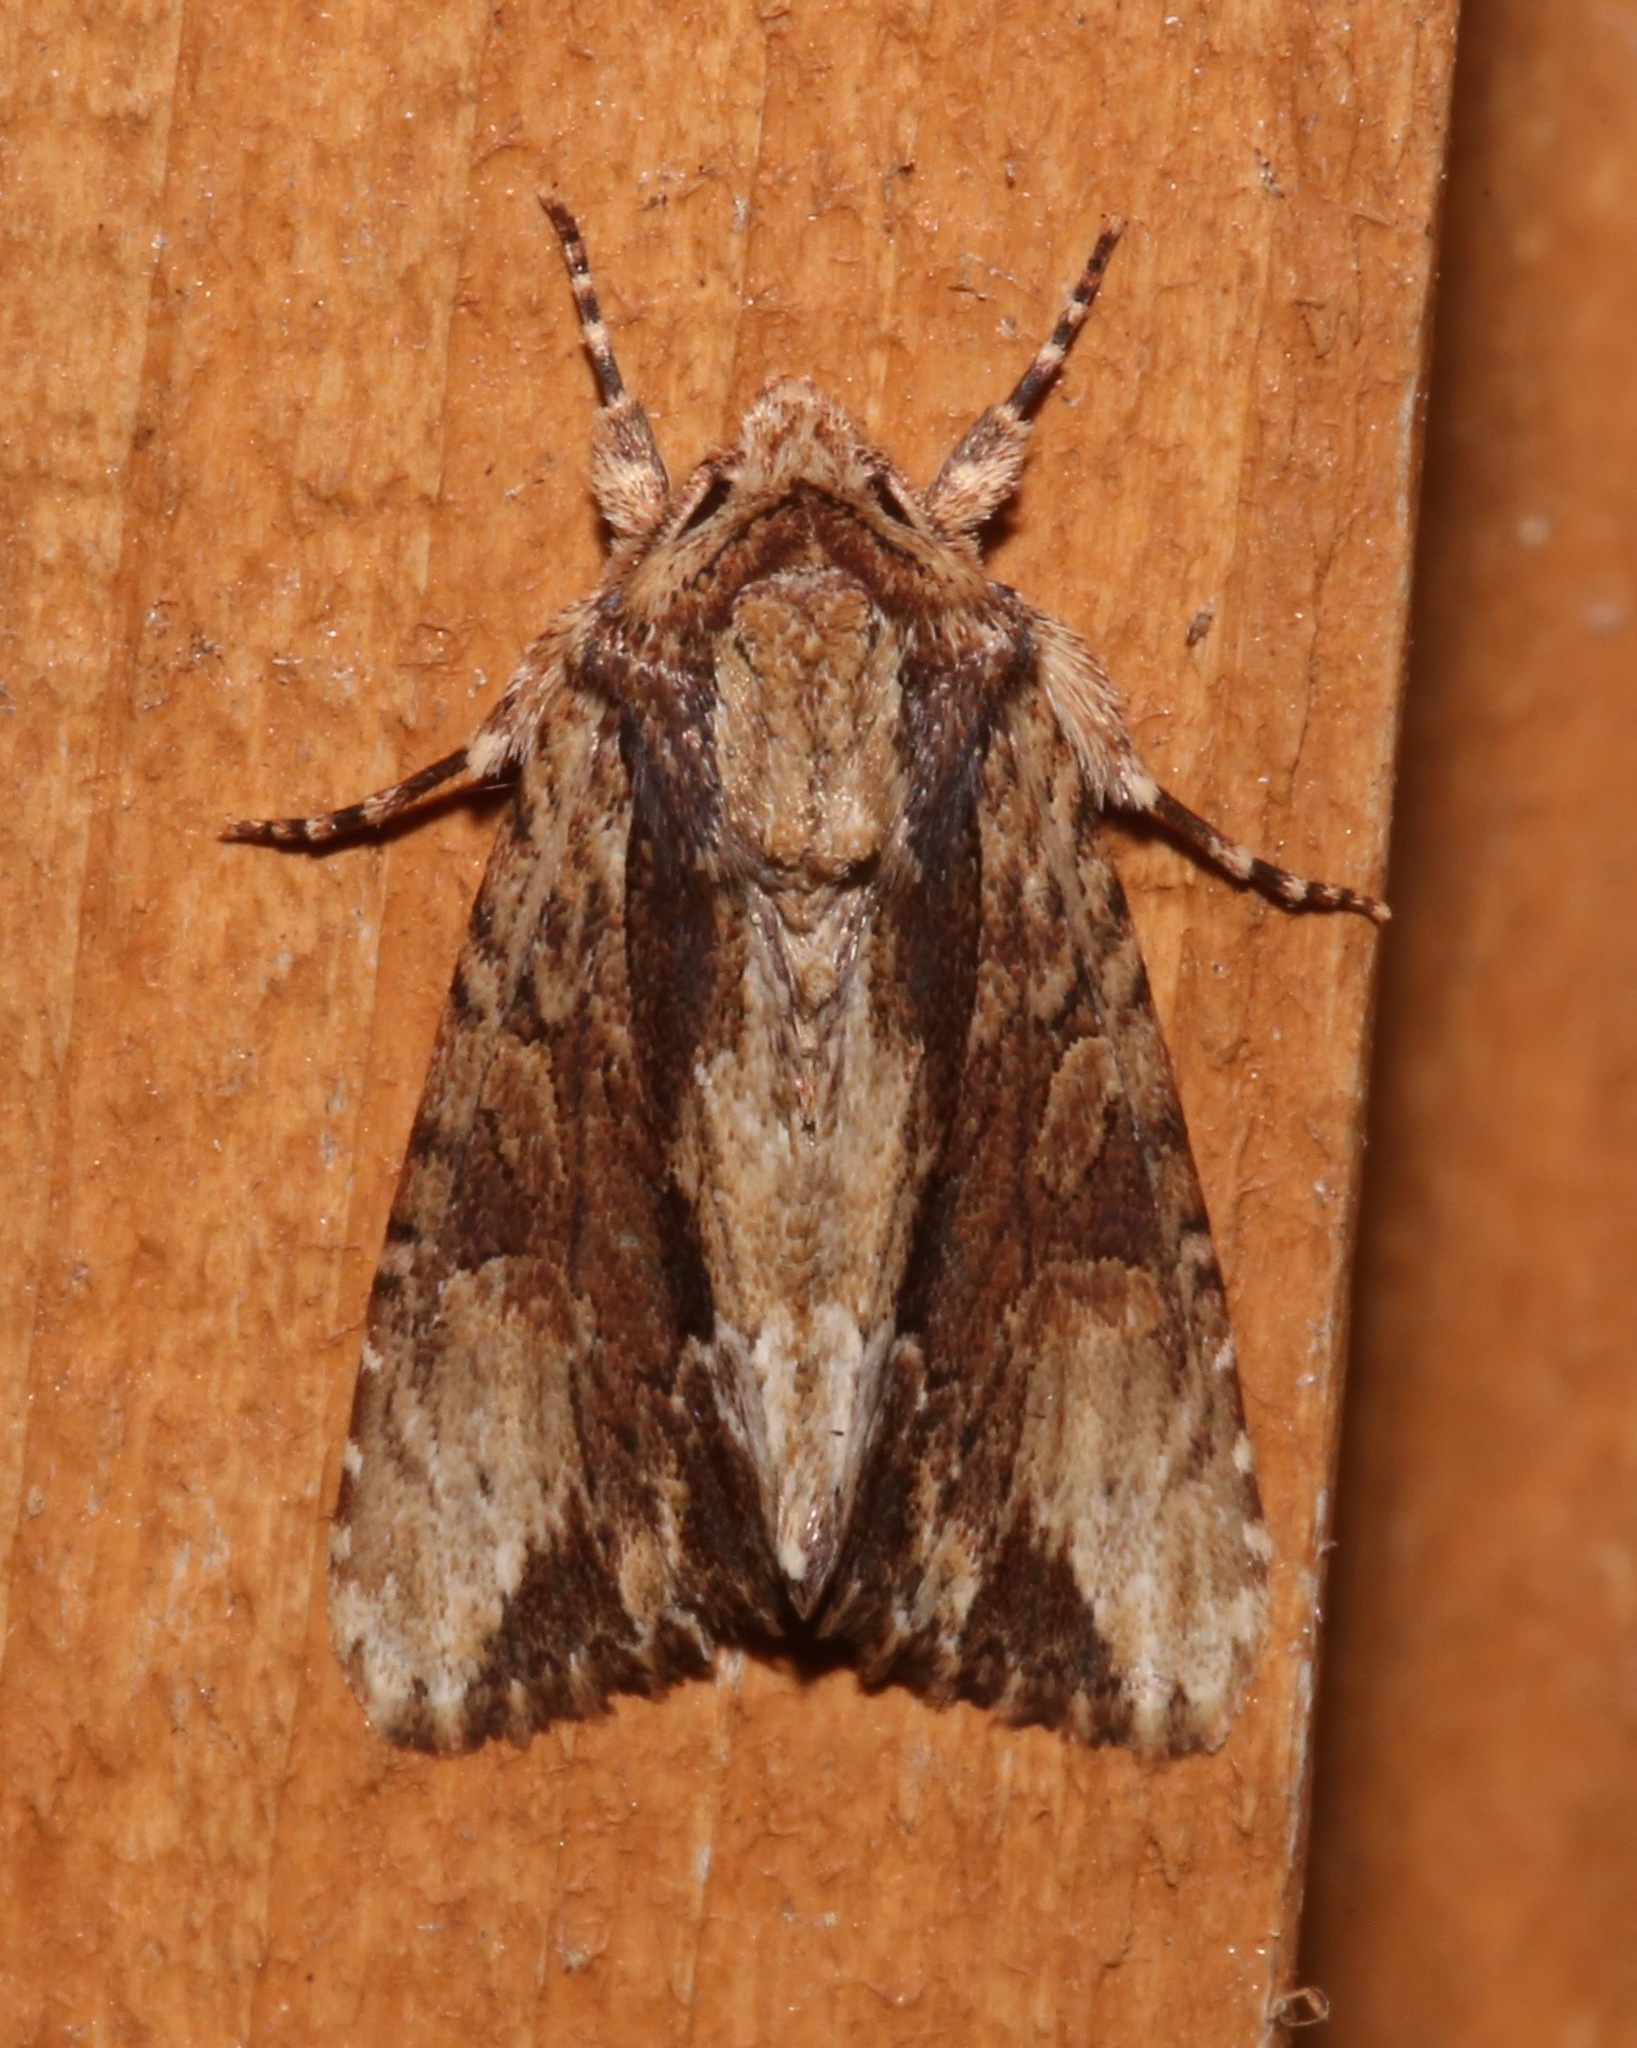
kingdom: Animalia
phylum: Arthropoda
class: Insecta
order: Lepidoptera
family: Noctuidae
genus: Achatia
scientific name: Achatia mucens
